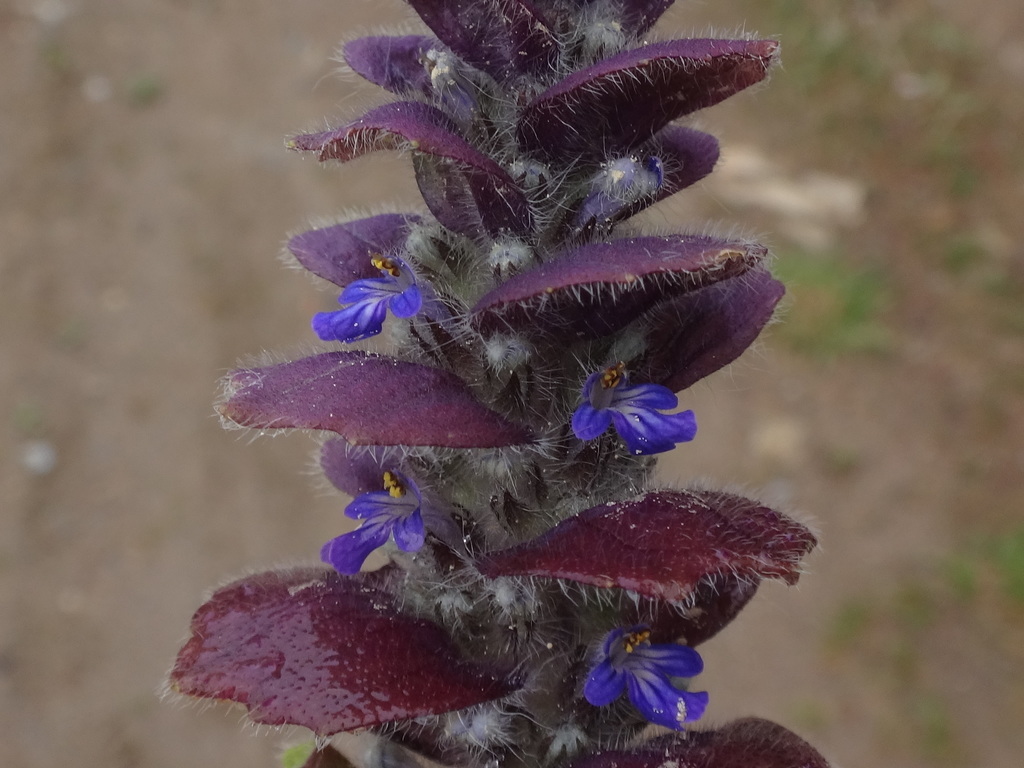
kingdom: Plantae
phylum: Tracheophyta
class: Magnoliopsida
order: Lamiales
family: Lamiaceae
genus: Ajuga
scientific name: Ajuga pyramidalis
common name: Pyramid bugle
